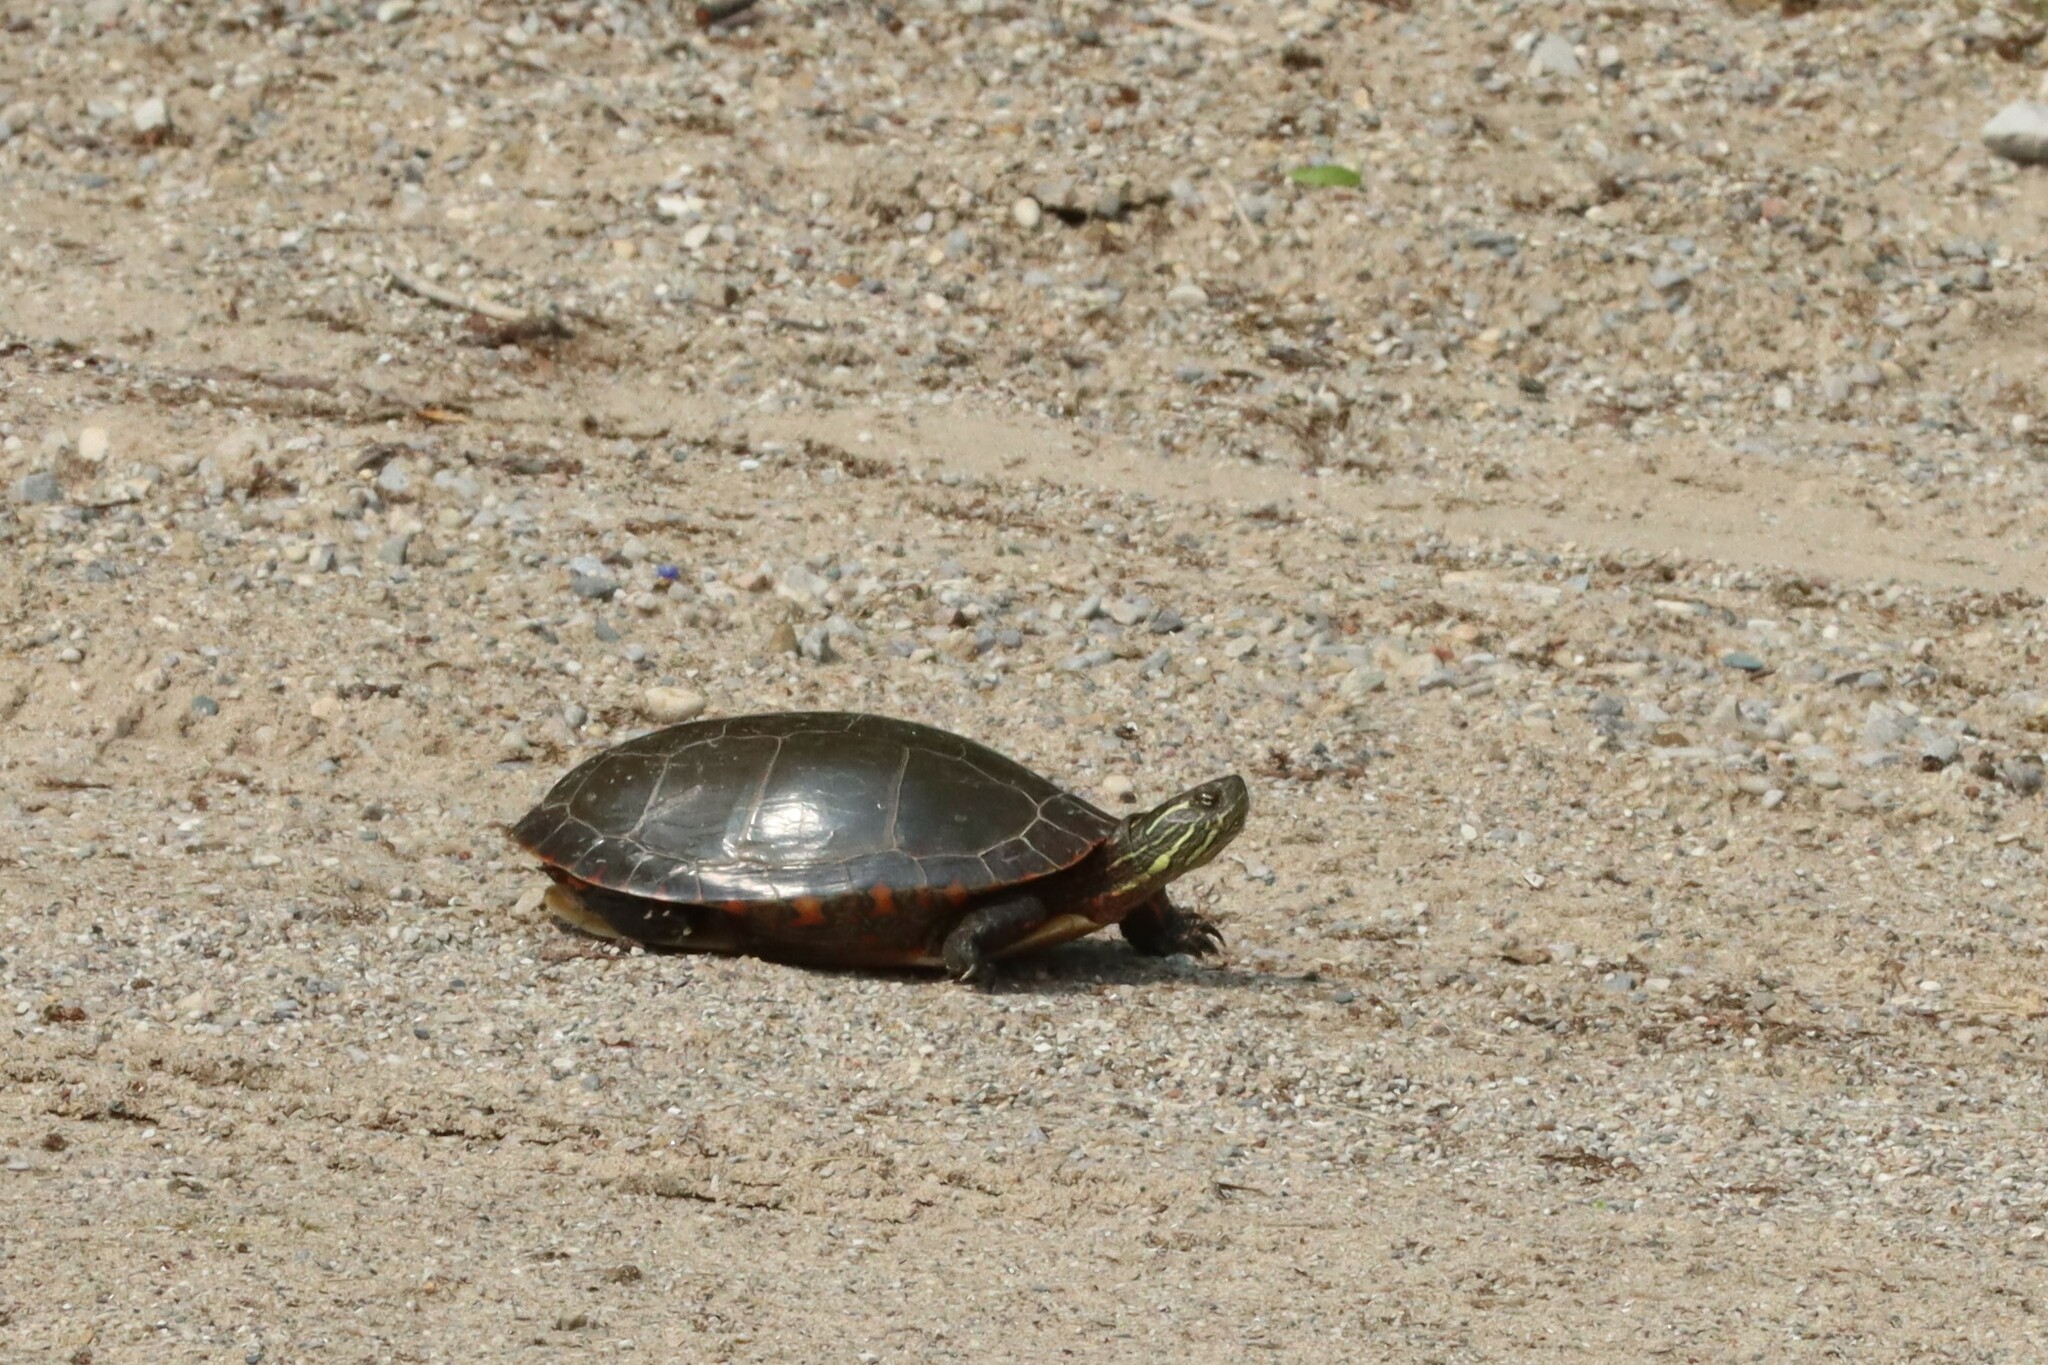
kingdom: Animalia
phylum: Chordata
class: Testudines
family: Emydidae
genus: Chrysemys
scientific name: Chrysemys picta
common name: Painted turtle
